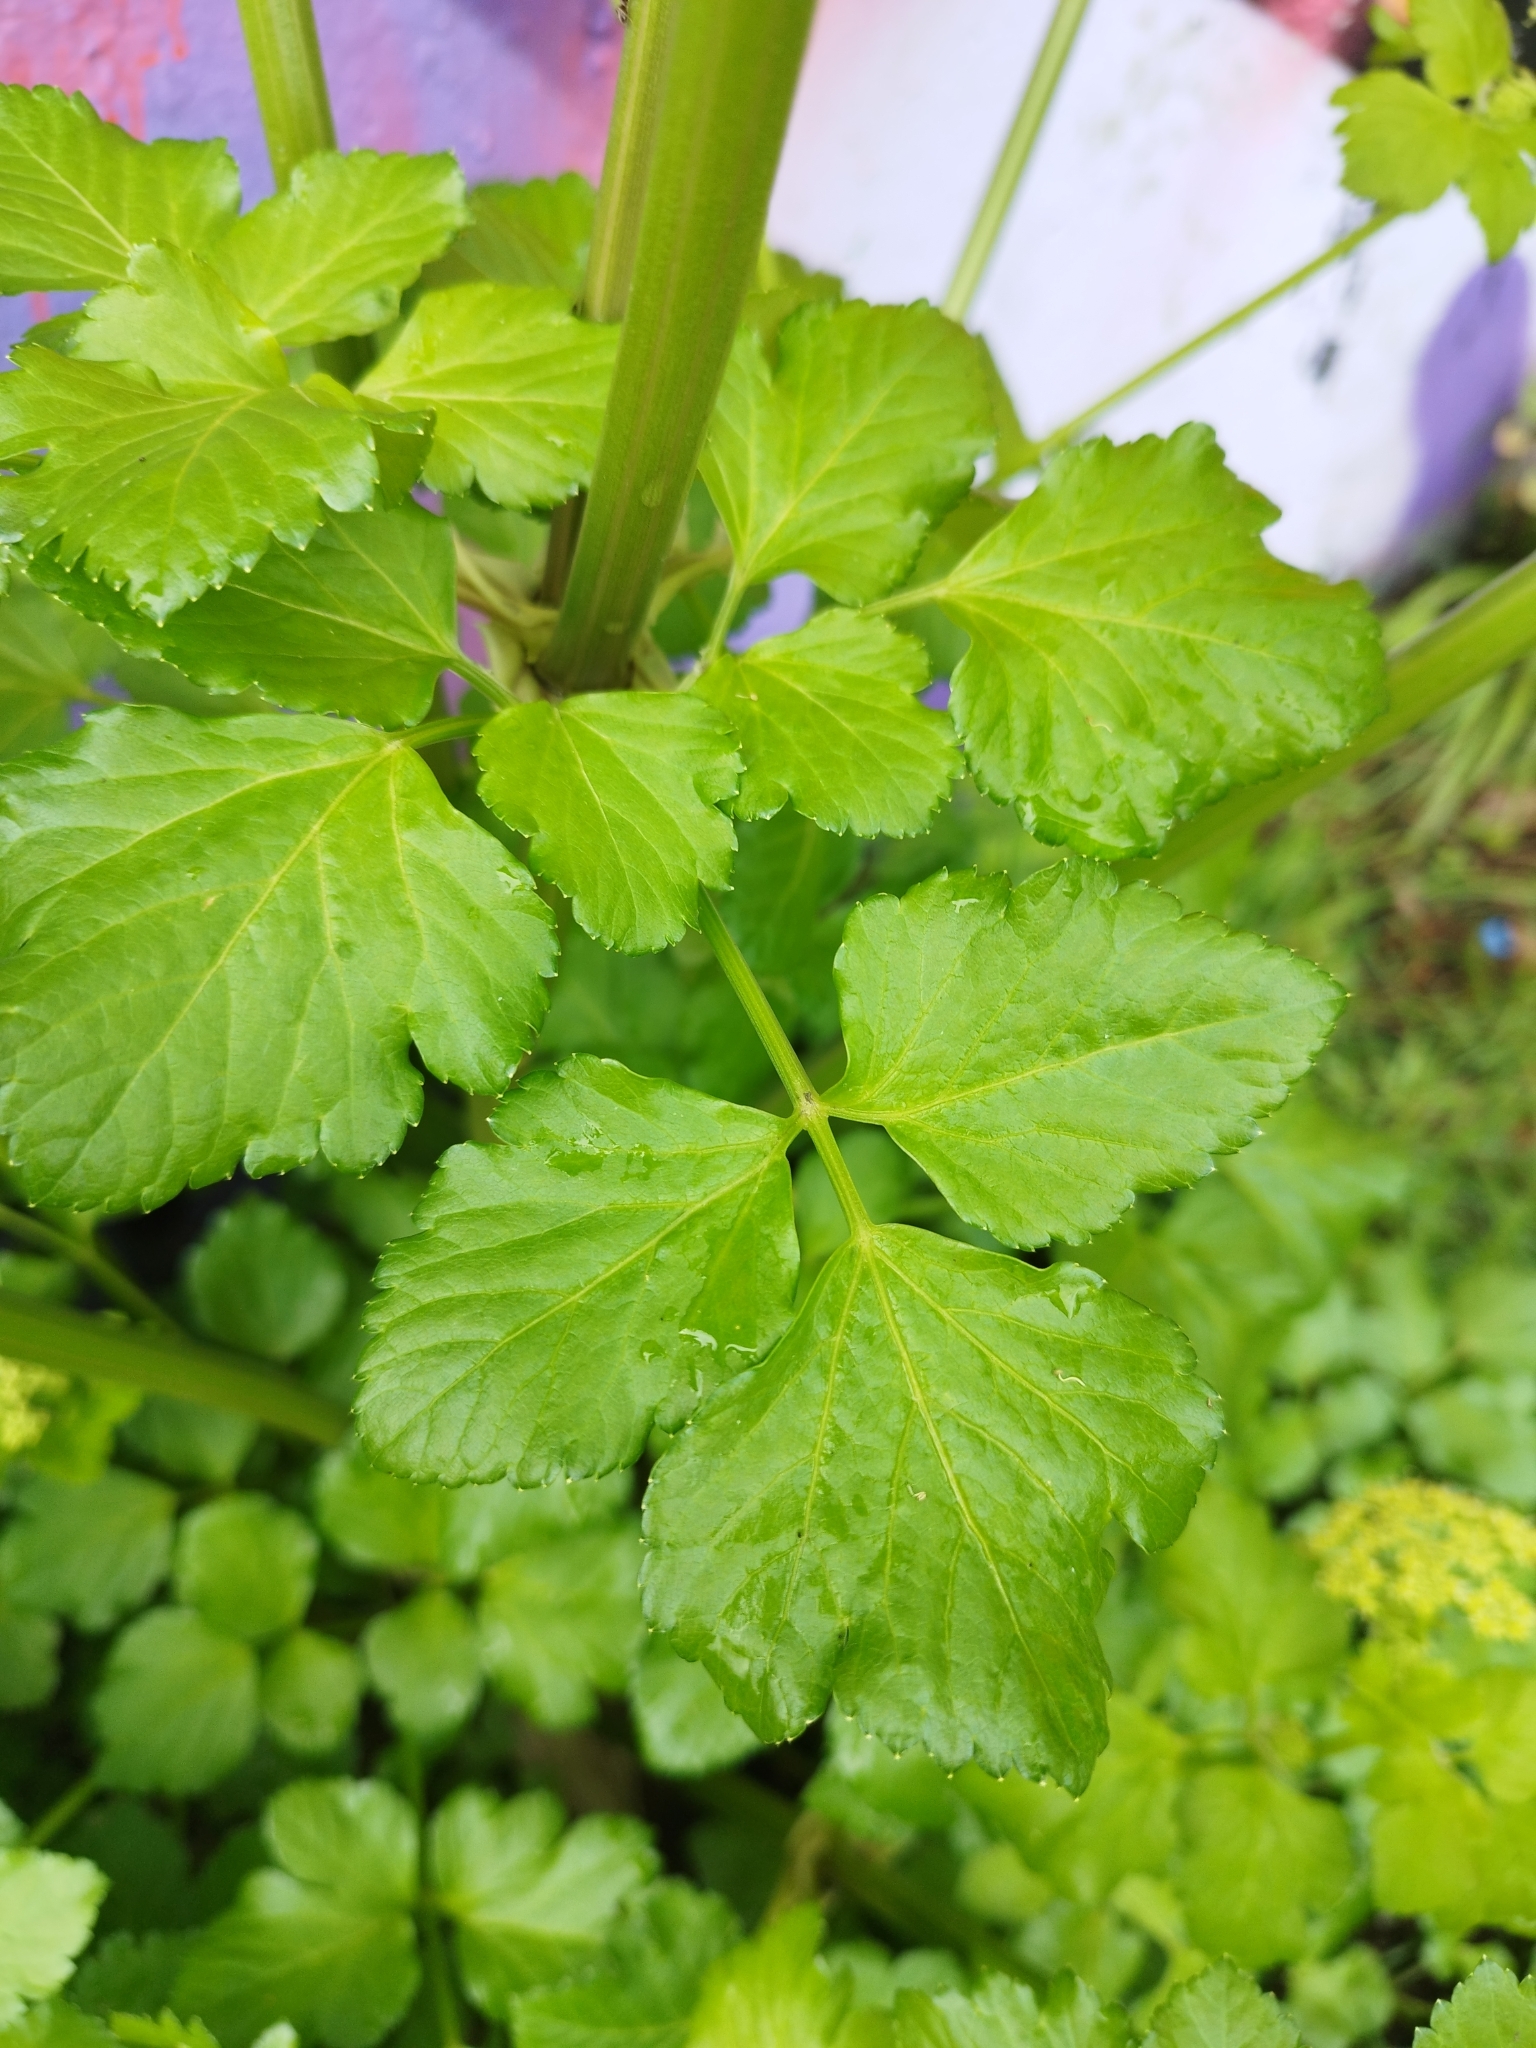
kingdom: Plantae
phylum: Tracheophyta
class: Magnoliopsida
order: Apiales
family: Apiaceae
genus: Smyrnium
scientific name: Smyrnium olusatrum
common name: Alexanders
